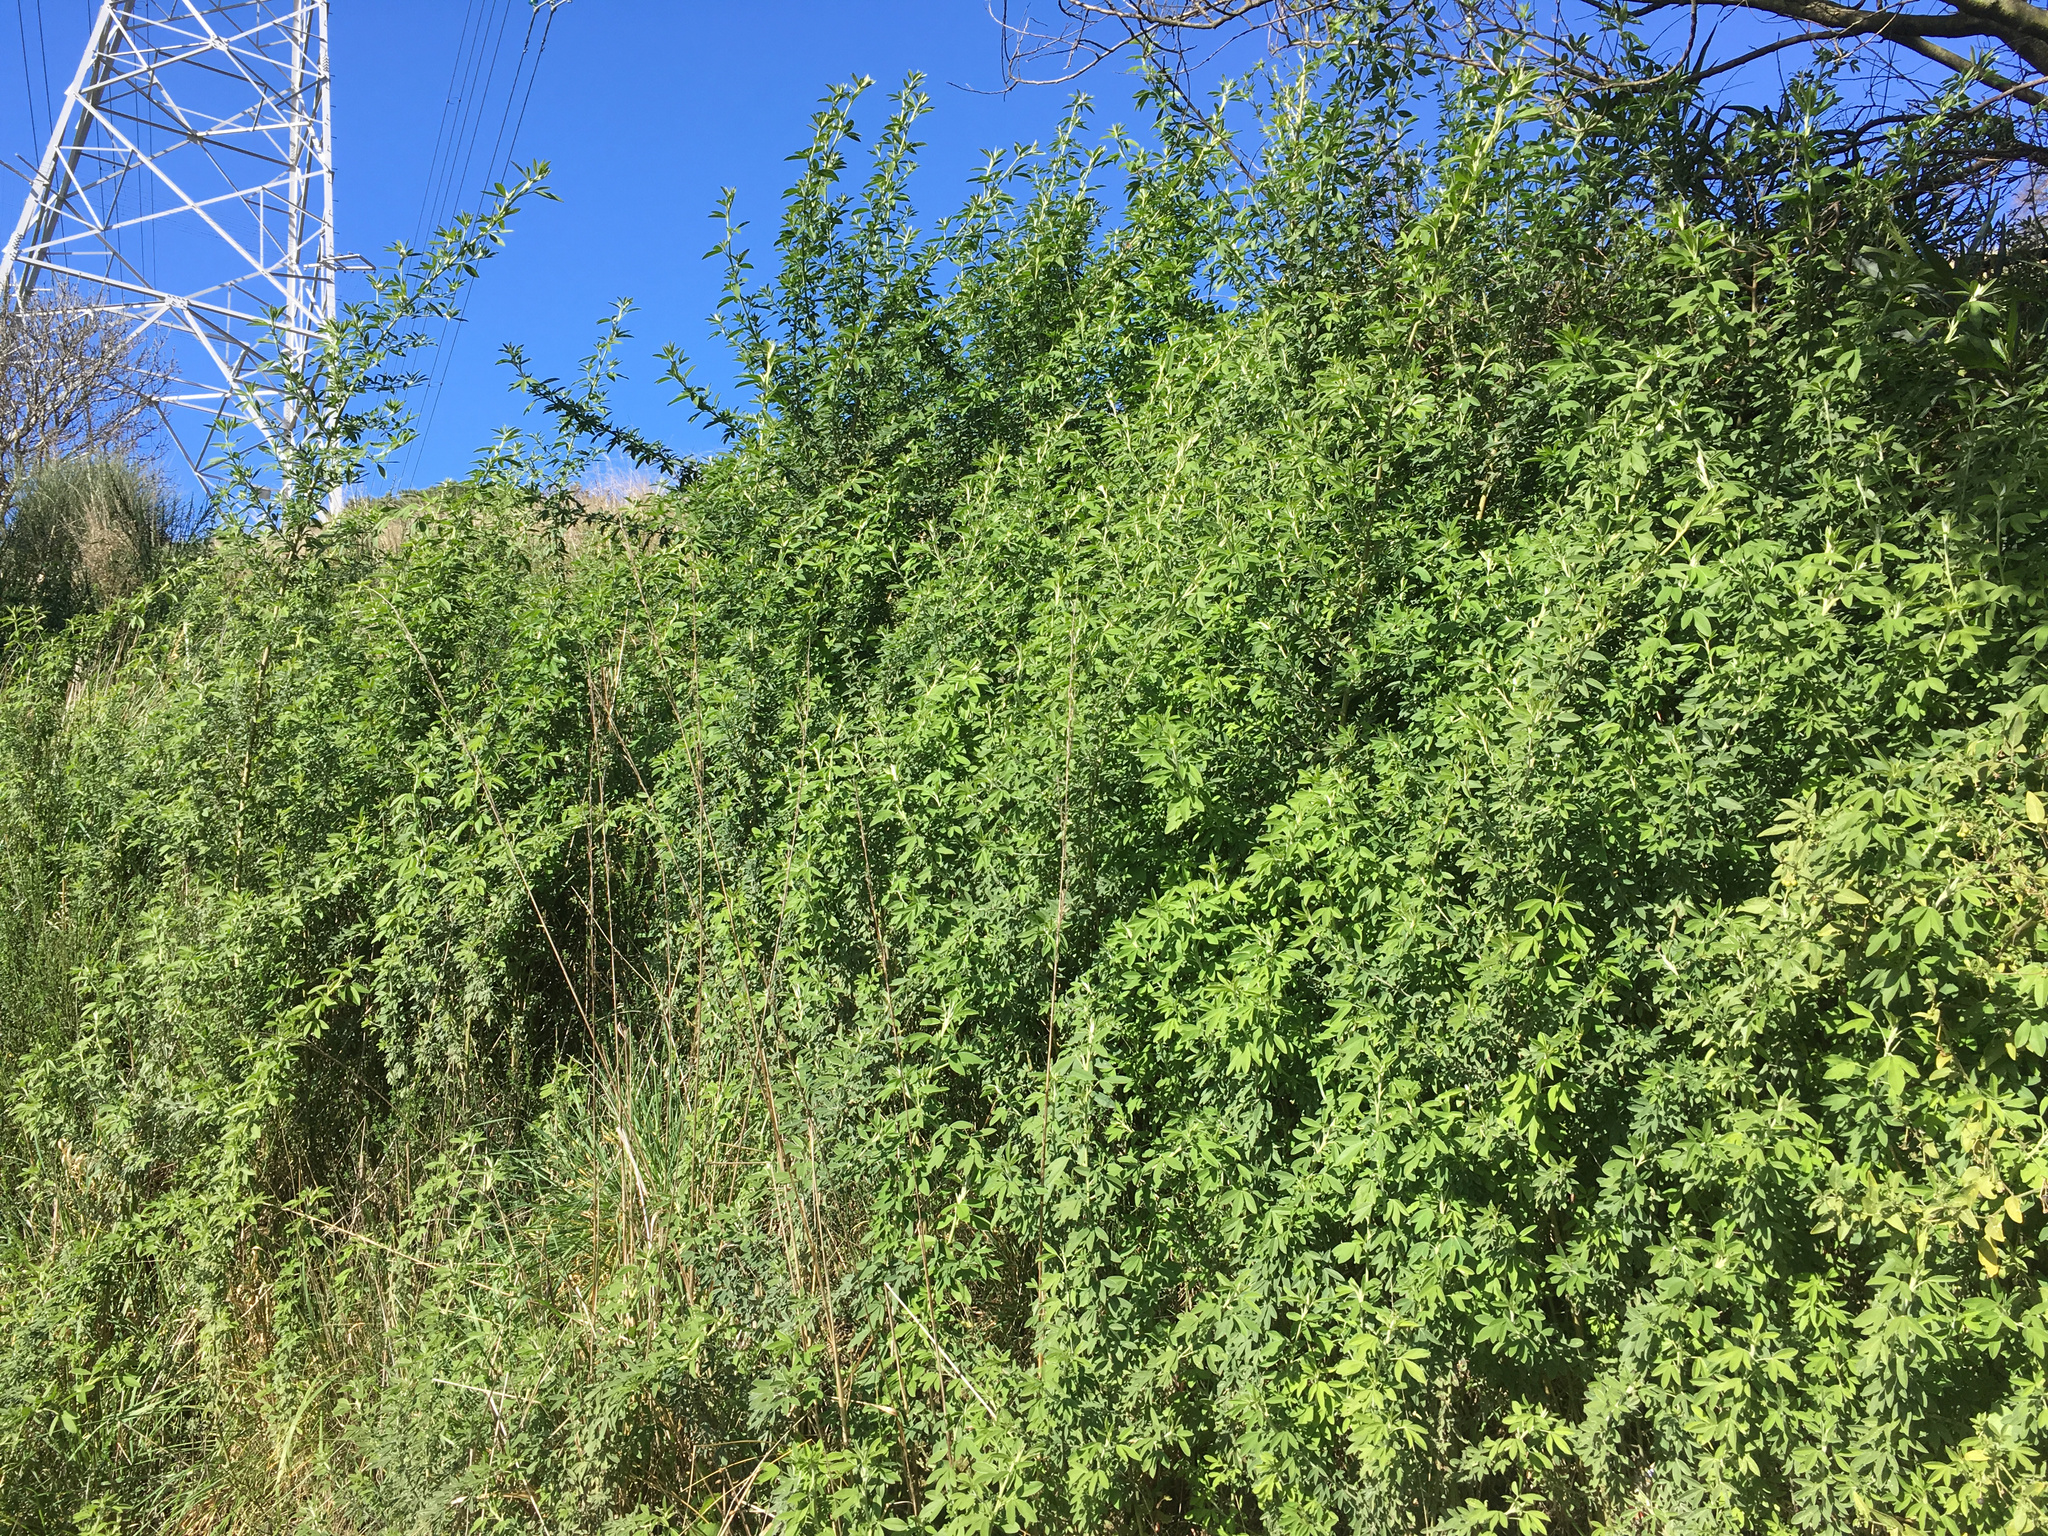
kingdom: Plantae
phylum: Tracheophyta
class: Magnoliopsida
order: Fabales
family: Fabaceae
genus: Chamaecytisus
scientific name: Chamaecytisus prolifer
